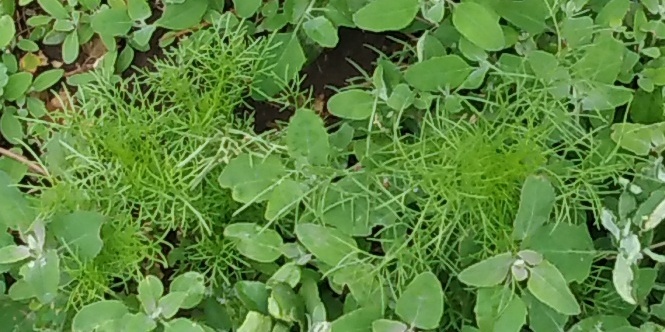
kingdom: Plantae
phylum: Tracheophyta
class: Magnoliopsida
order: Asterales
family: Asteraceae
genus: Tripleurospermum
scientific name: Tripleurospermum inodorum
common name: Scentless mayweed
